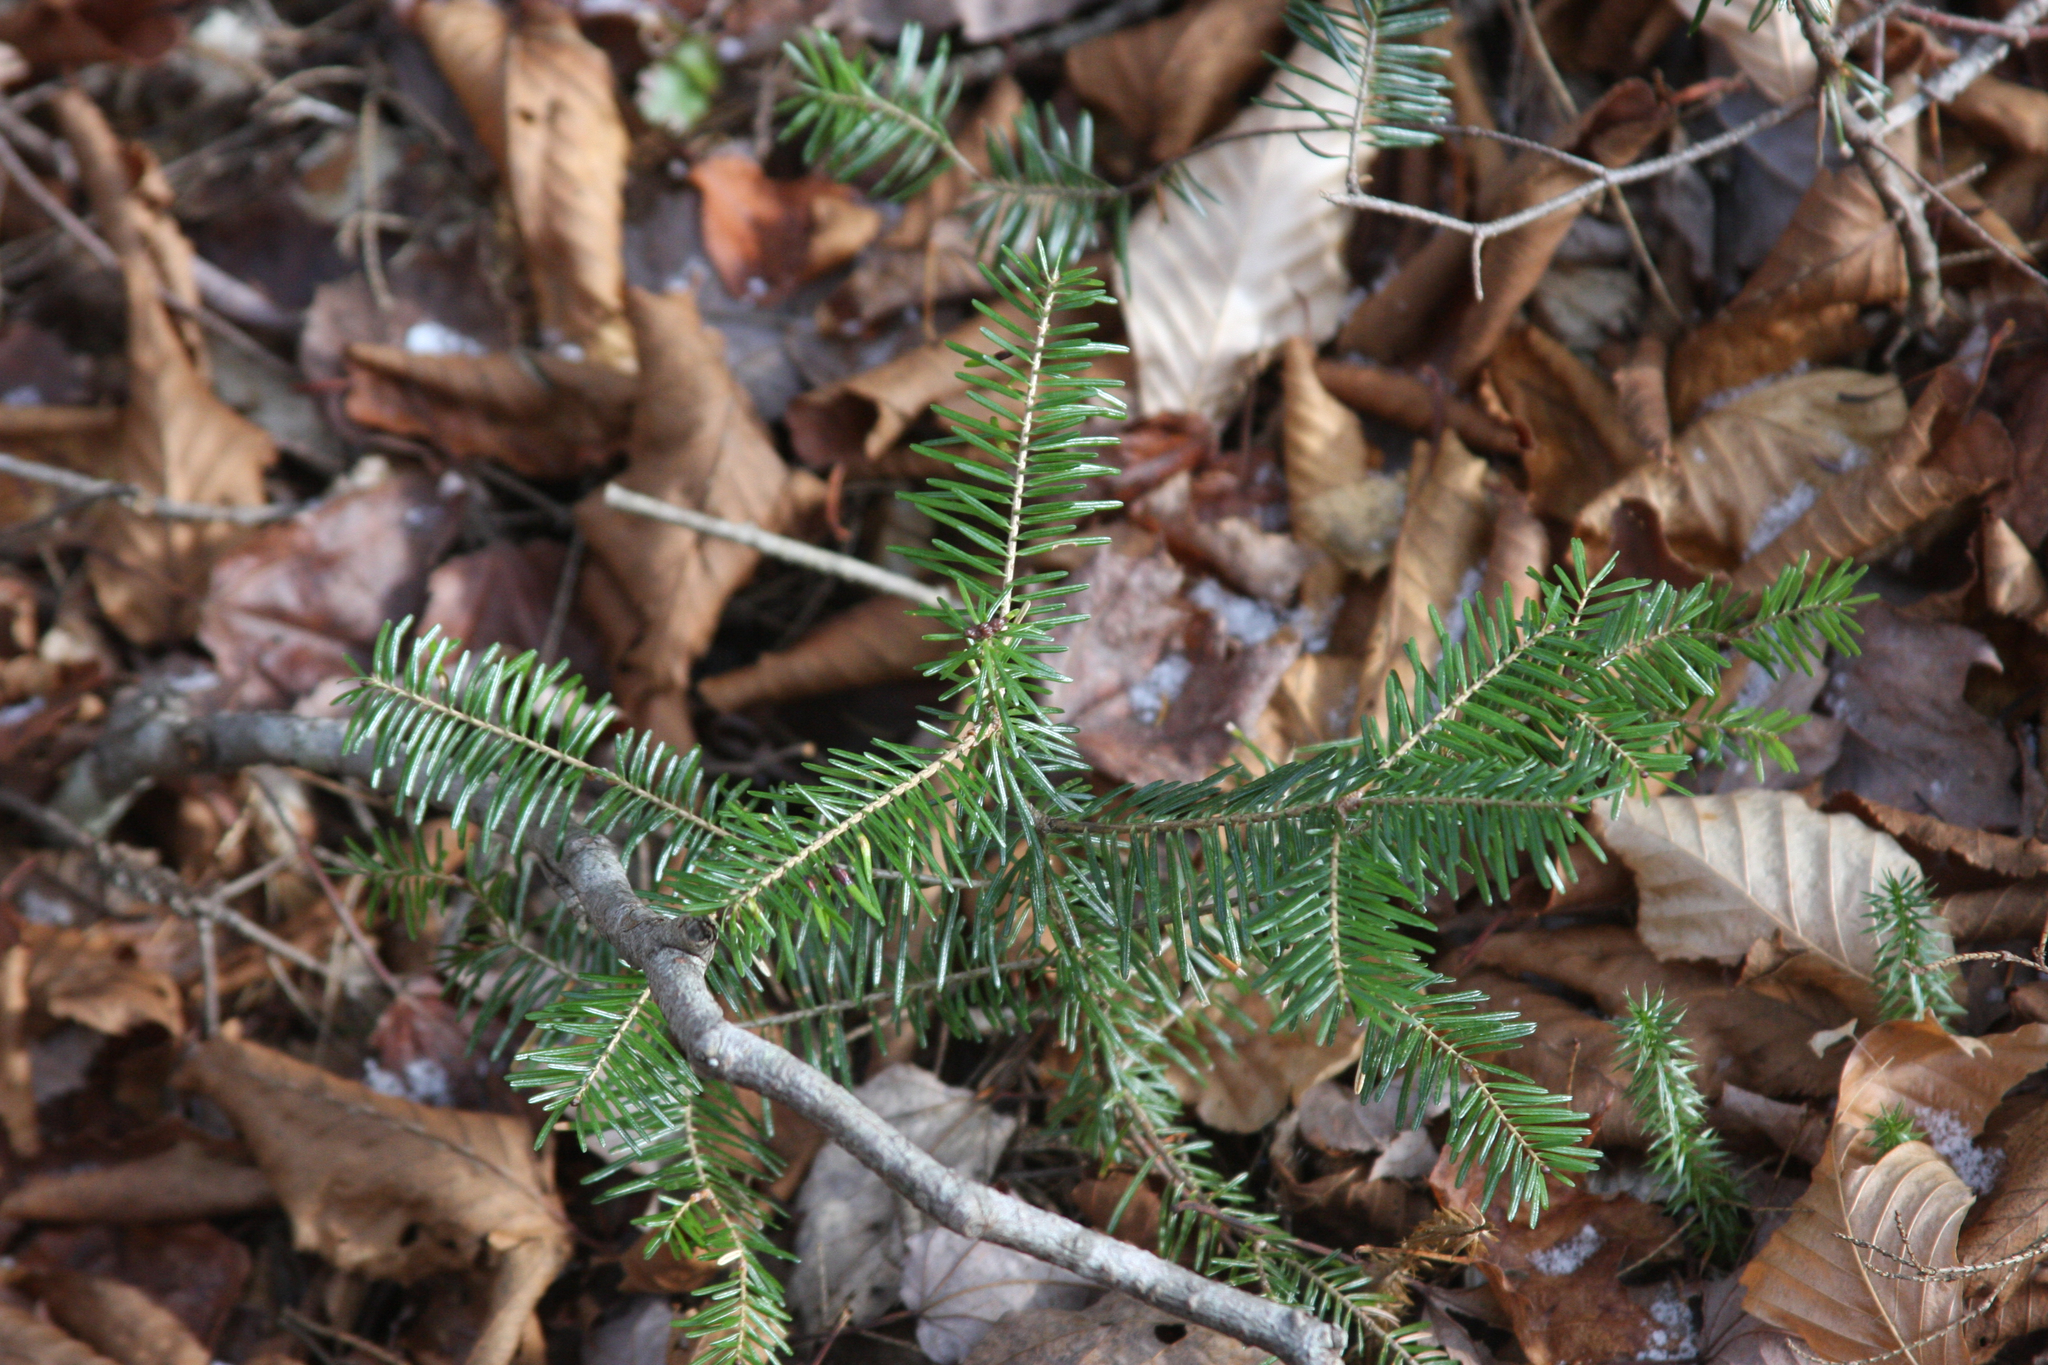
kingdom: Plantae
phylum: Tracheophyta
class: Pinopsida
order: Pinales
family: Pinaceae
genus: Abies
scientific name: Abies balsamea
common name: Balsam fir
